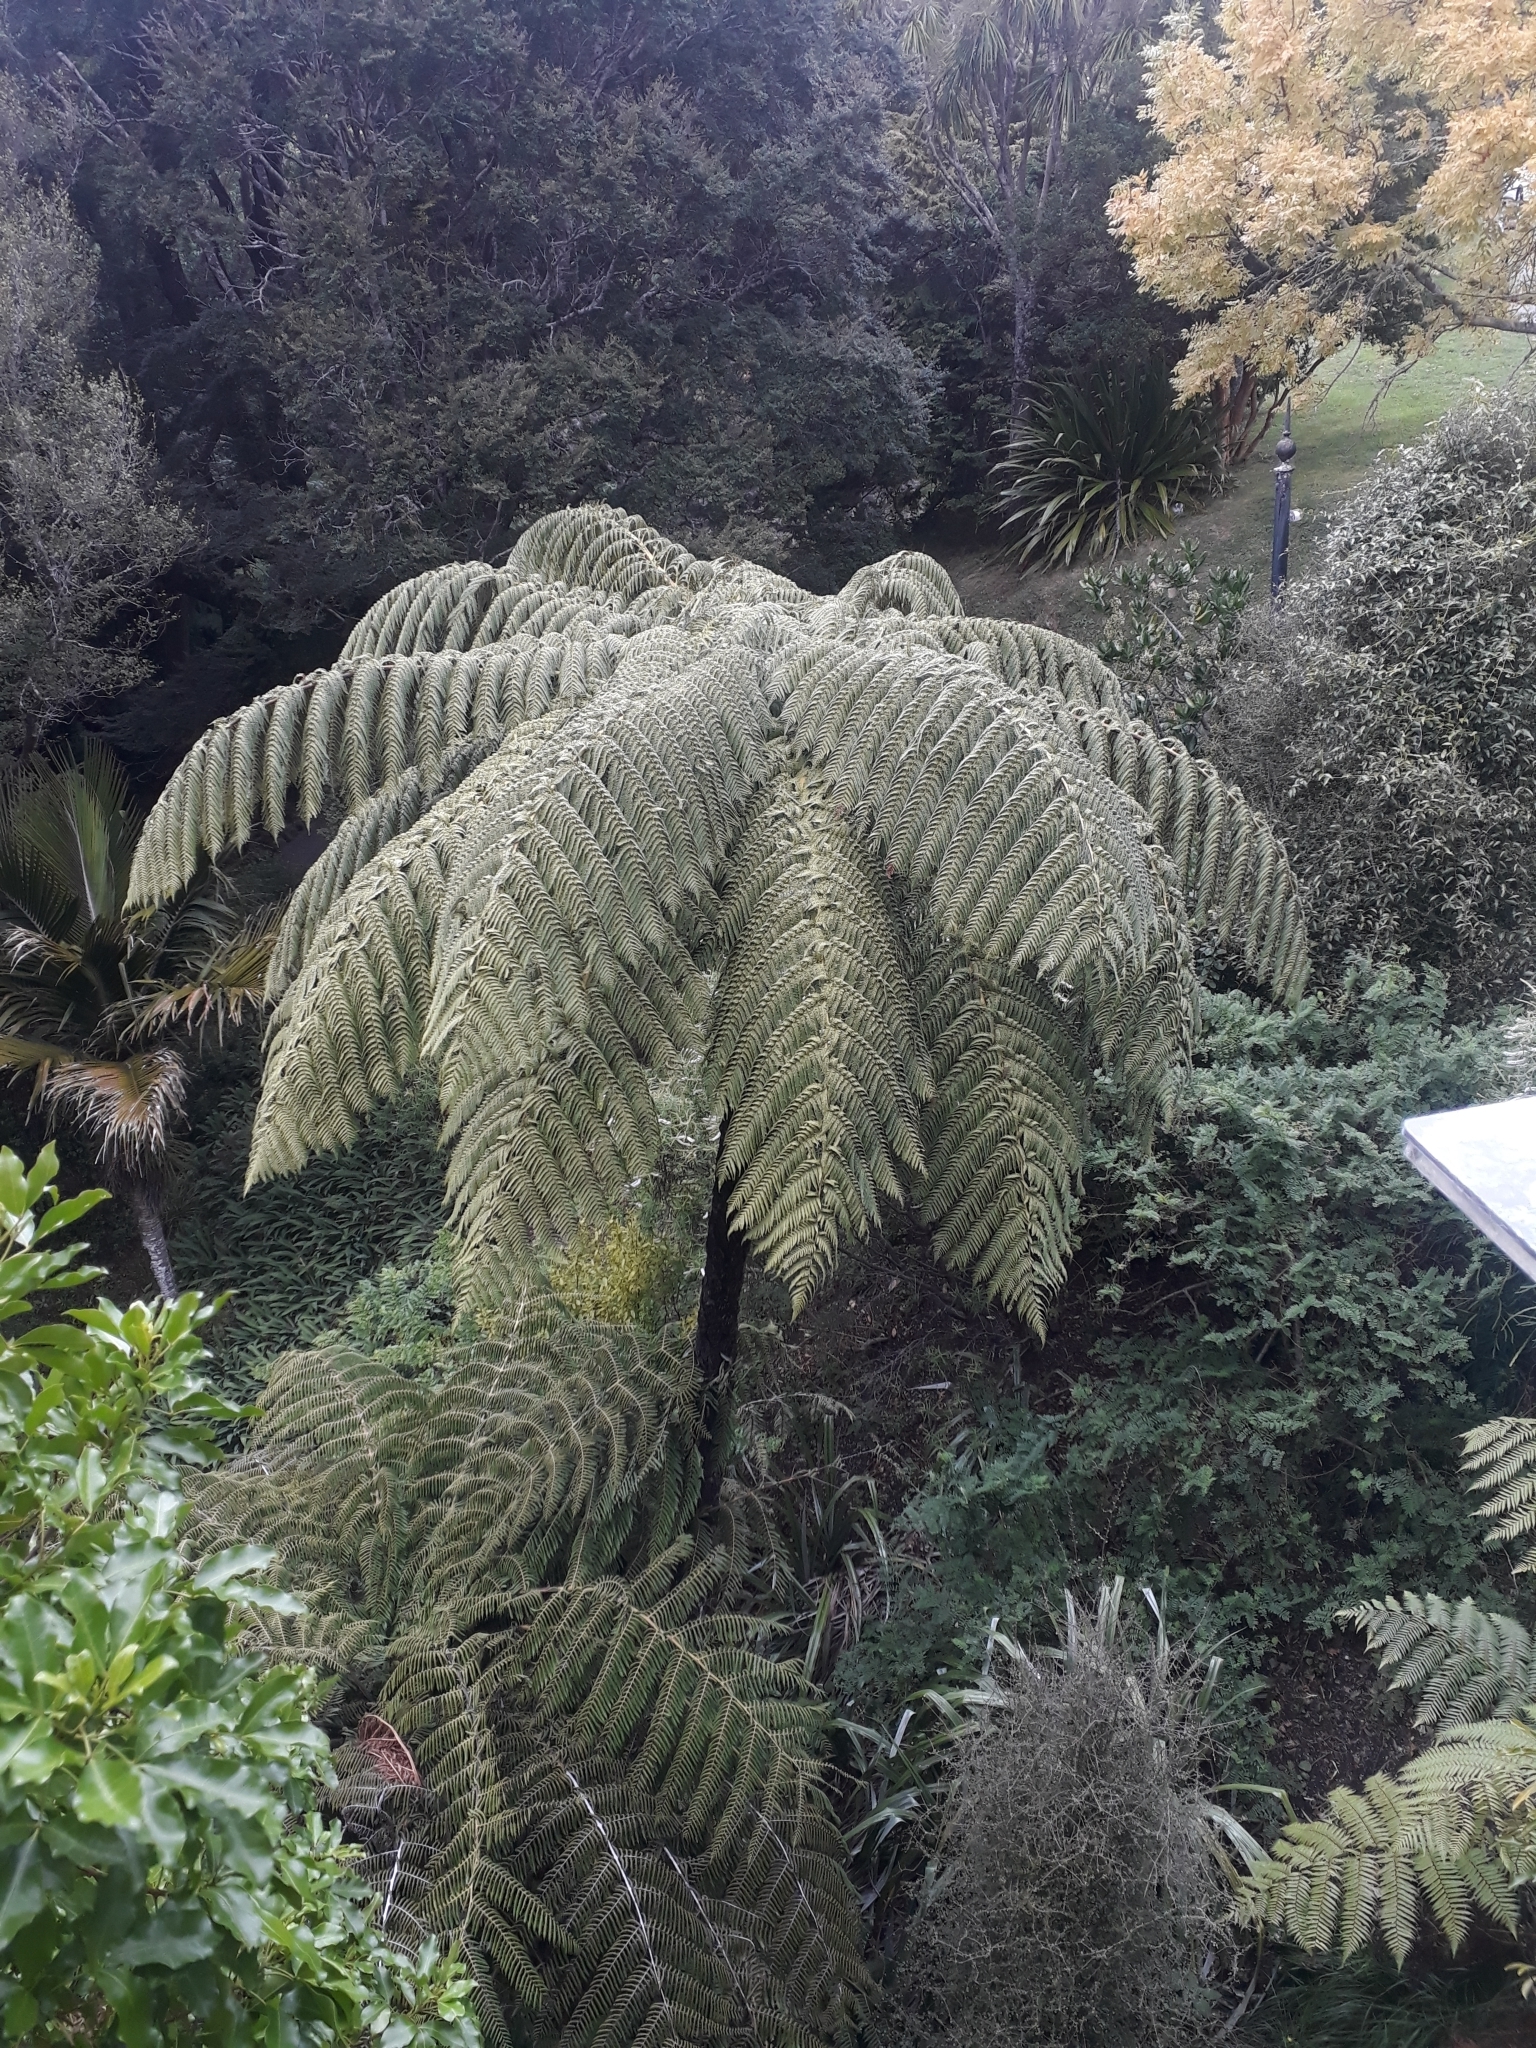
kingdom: Plantae
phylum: Tracheophyta
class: Polypodiopsida
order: Cyatheales
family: Cyatheaceae
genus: Sphaeropteris
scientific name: Sphaeropteris medullaris
